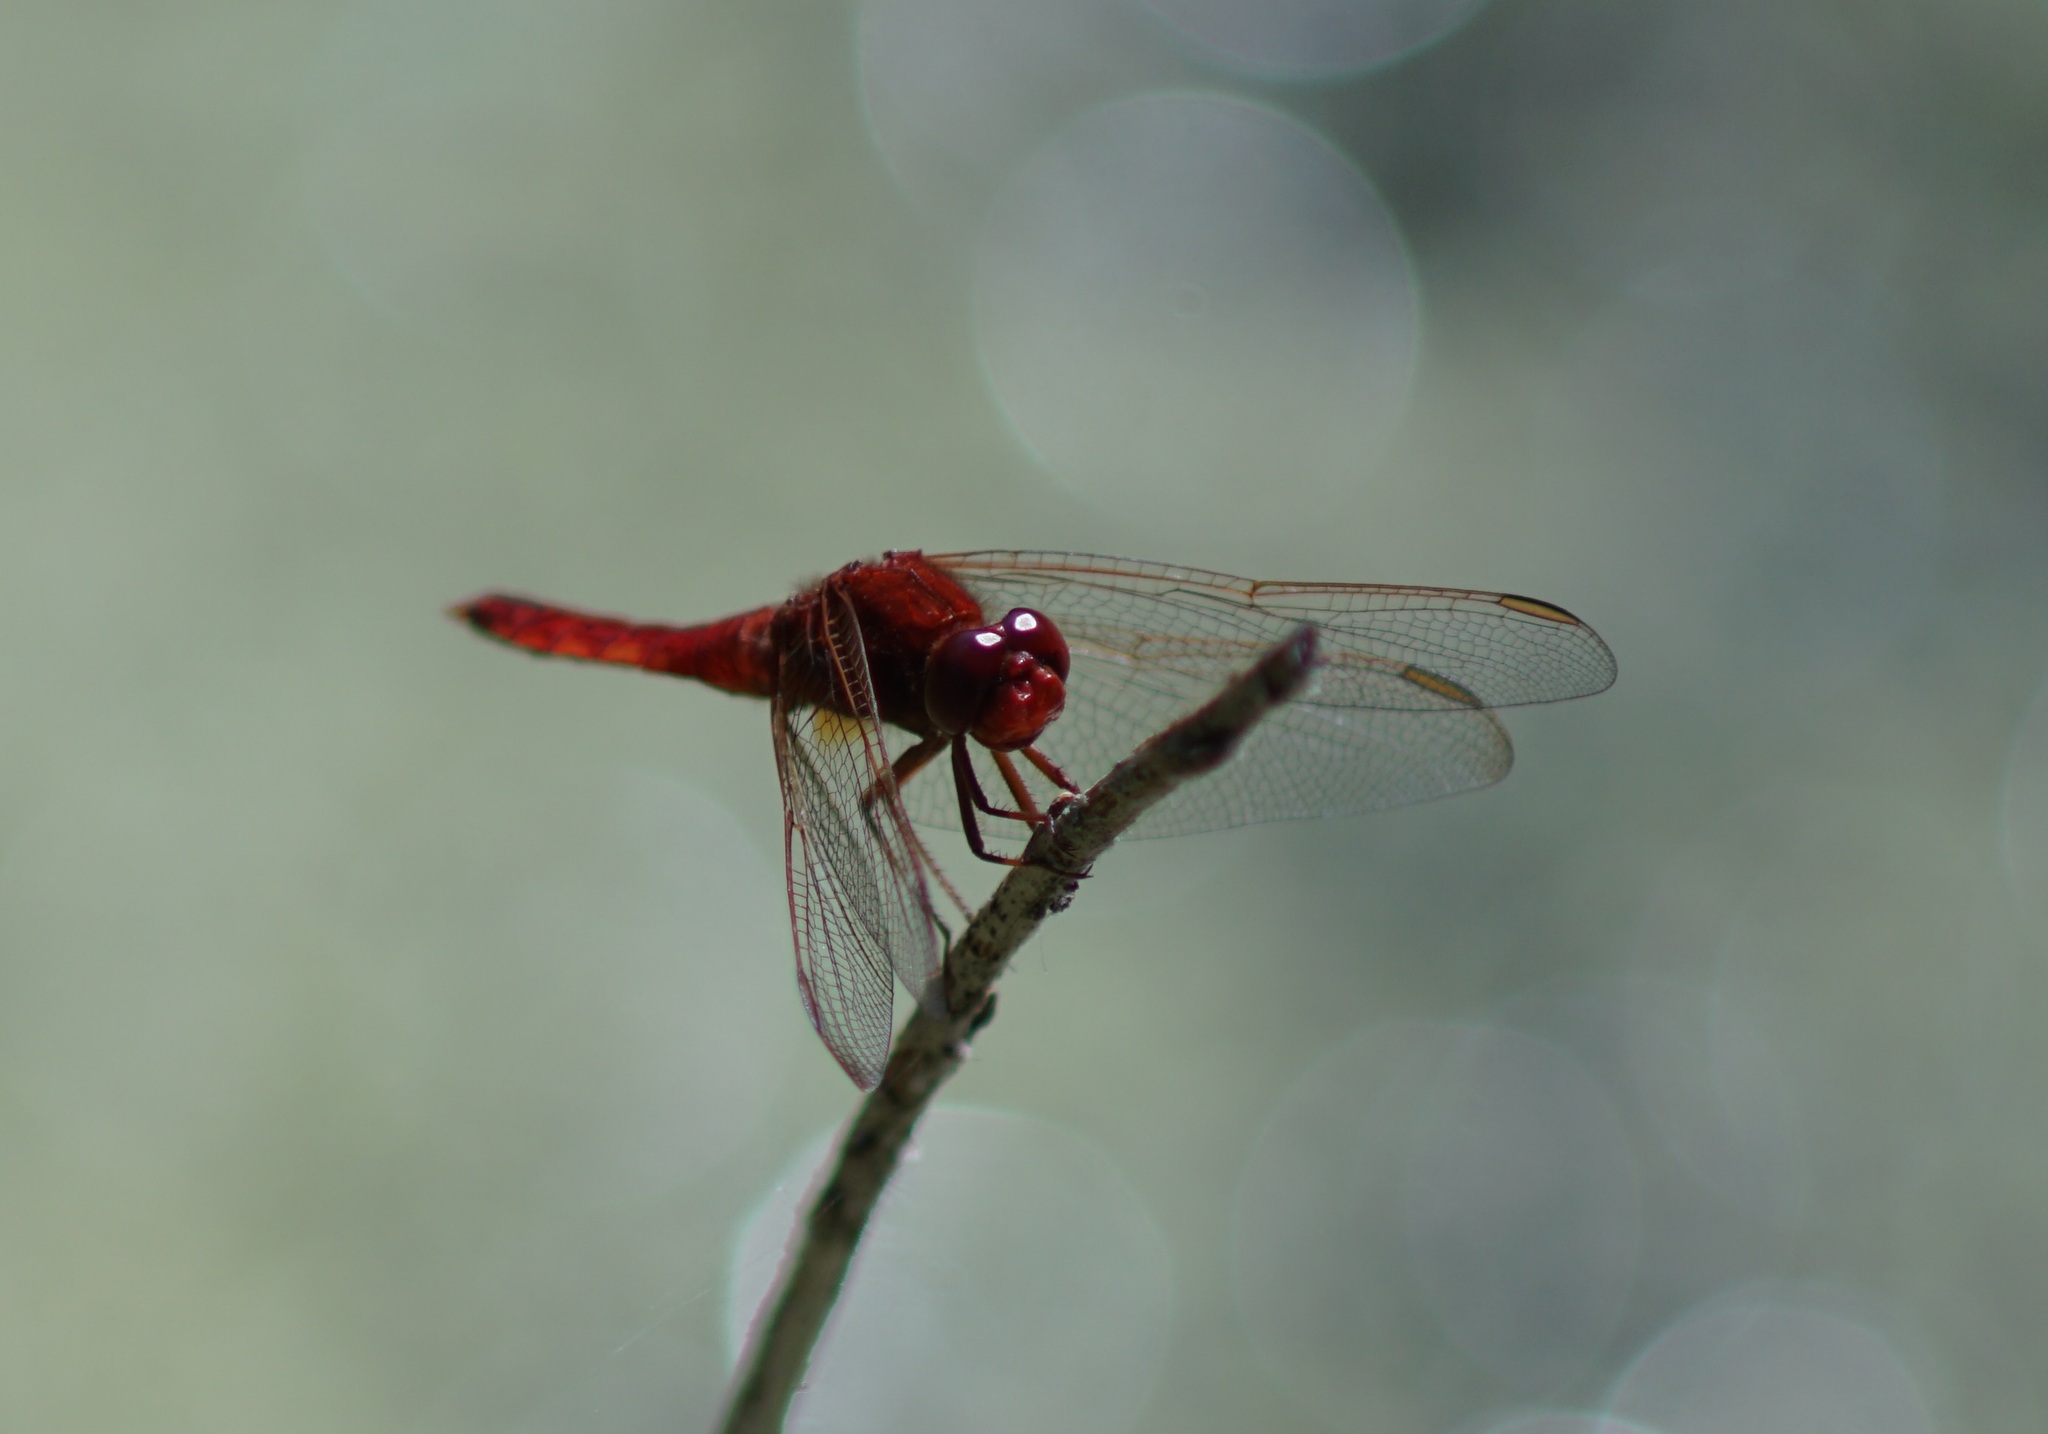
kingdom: Animalia
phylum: Arthropoda
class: Insecta
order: Odonata
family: Libellulidae
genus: Crocothemis
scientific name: Crocothemis erythraea
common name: Scarlet dragonfly
